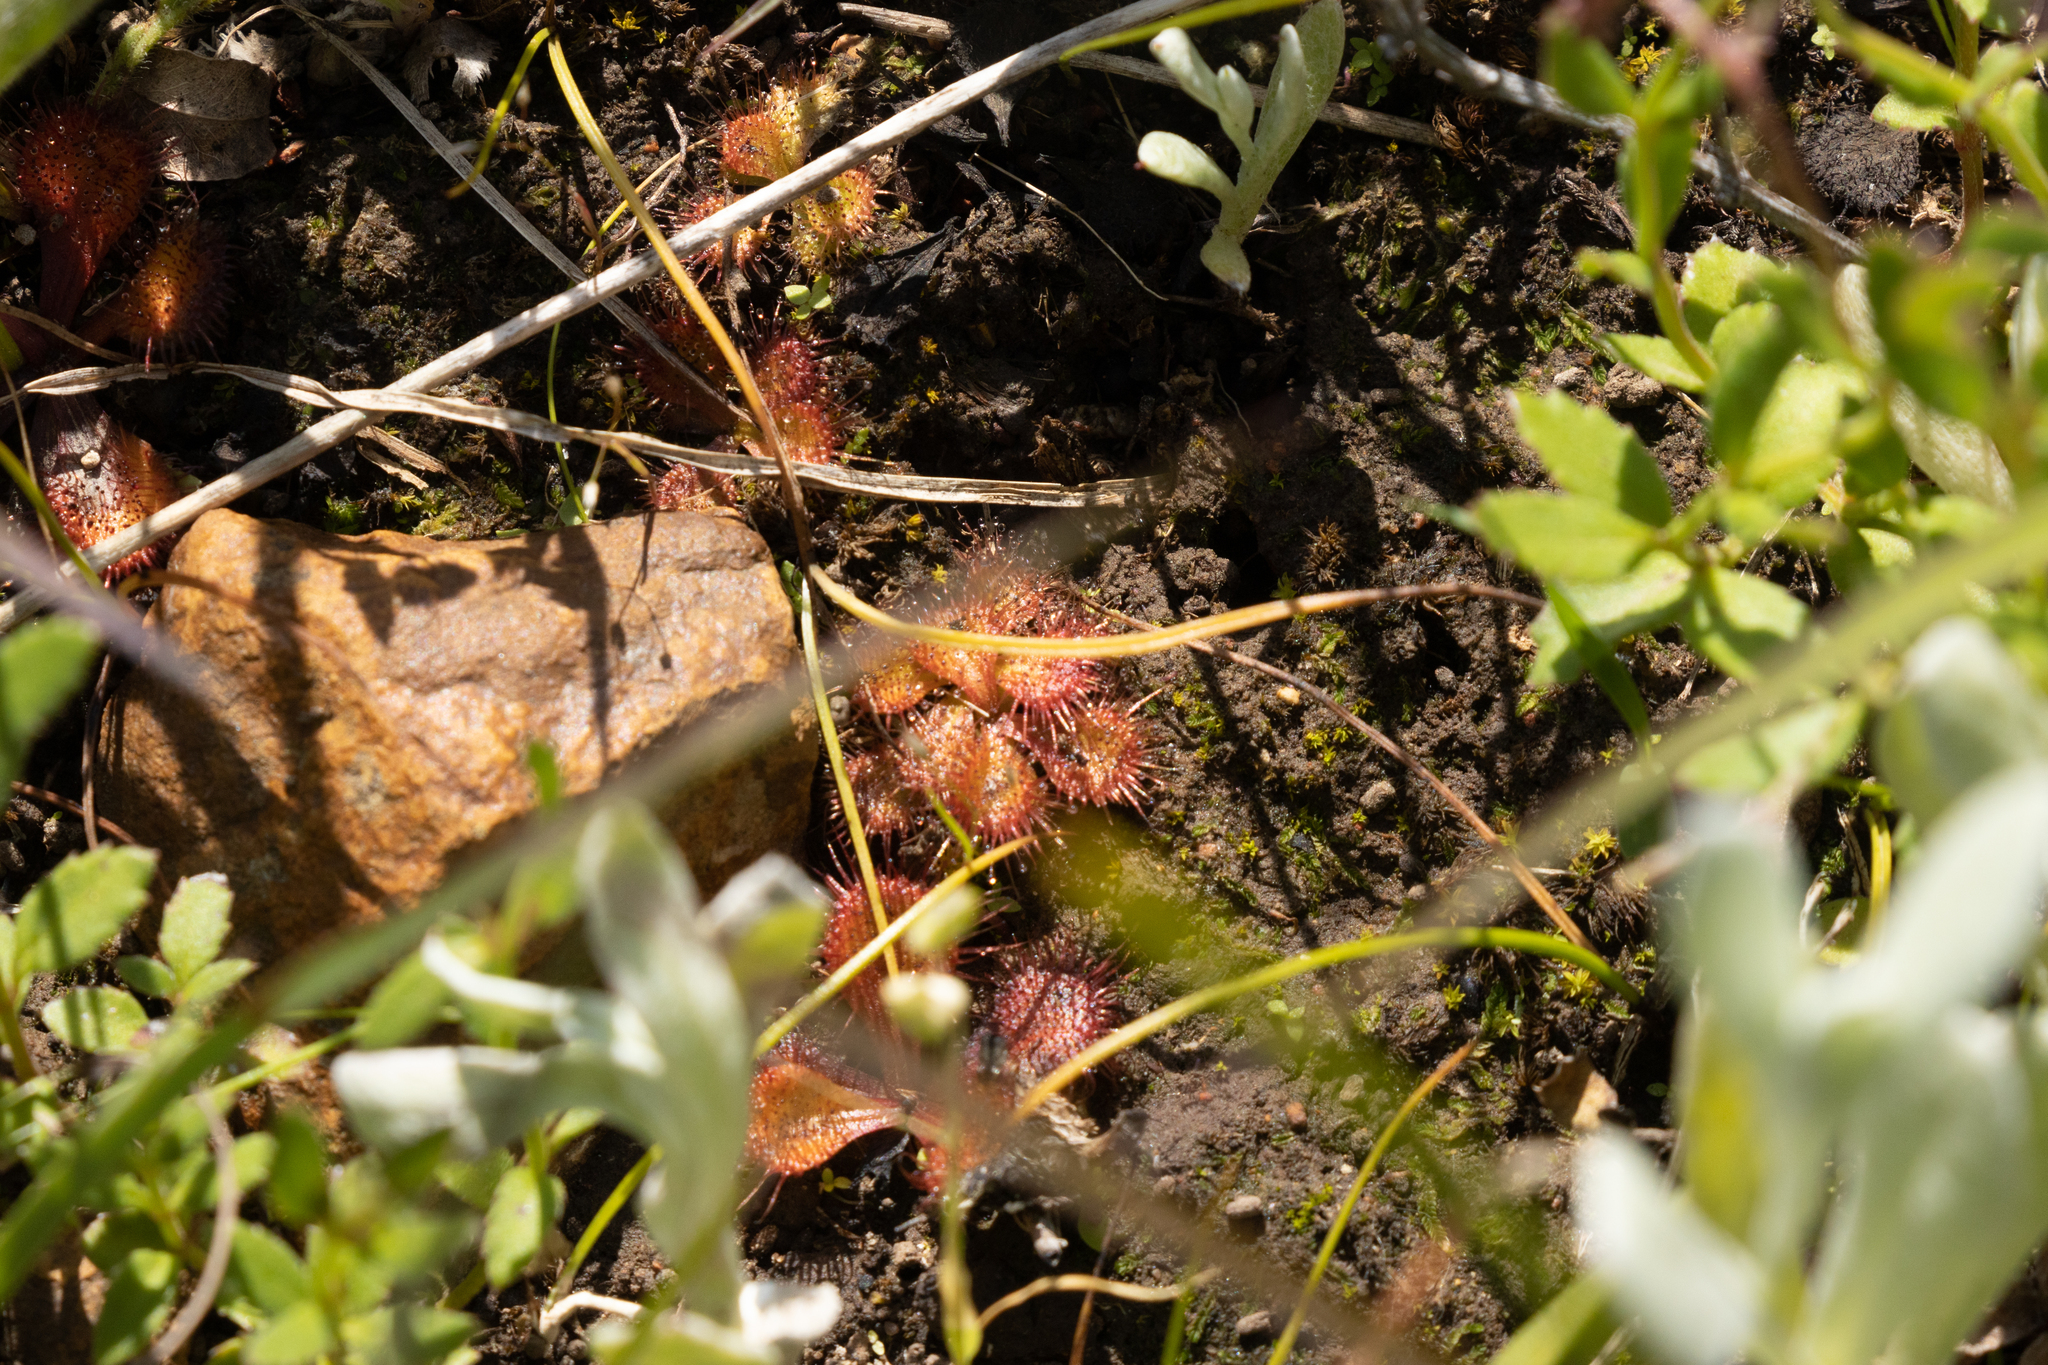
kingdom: Plantae
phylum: Tracheophyta
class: Magnoliopsida
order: Caryophyllales
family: Droseraceae
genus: Drosera
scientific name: Drosera aberrans
